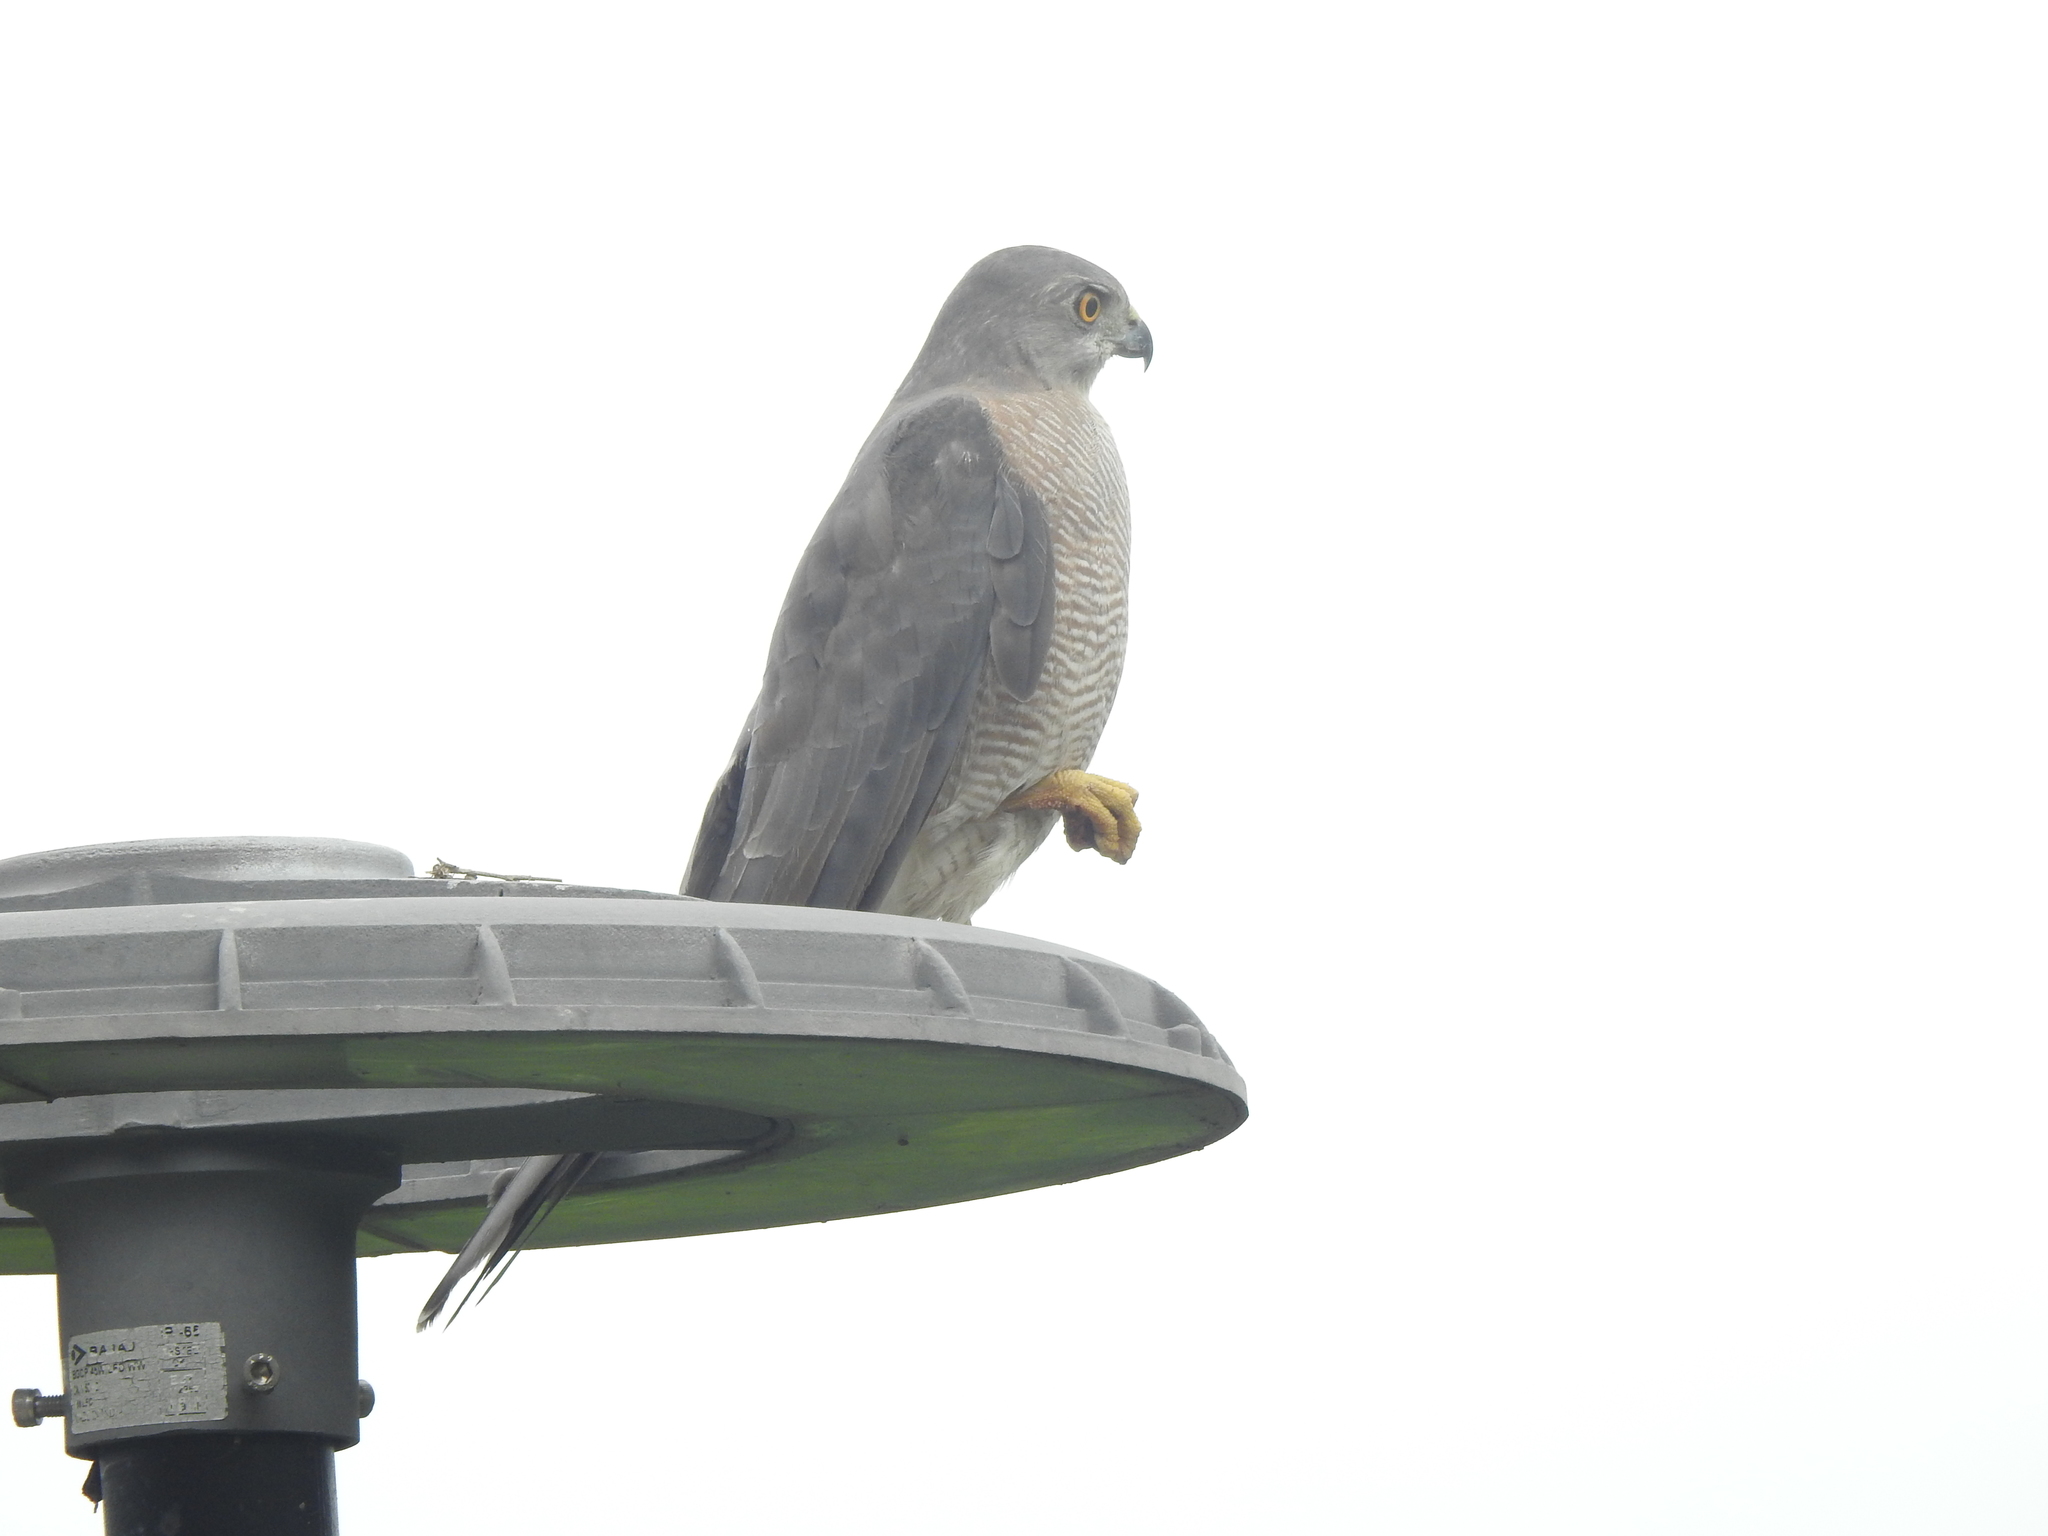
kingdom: Animalia
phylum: Chordata
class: Aves
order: Accipitriformes
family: Accipitridae
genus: Accipiter
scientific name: Accipiter badius
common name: Shikra
